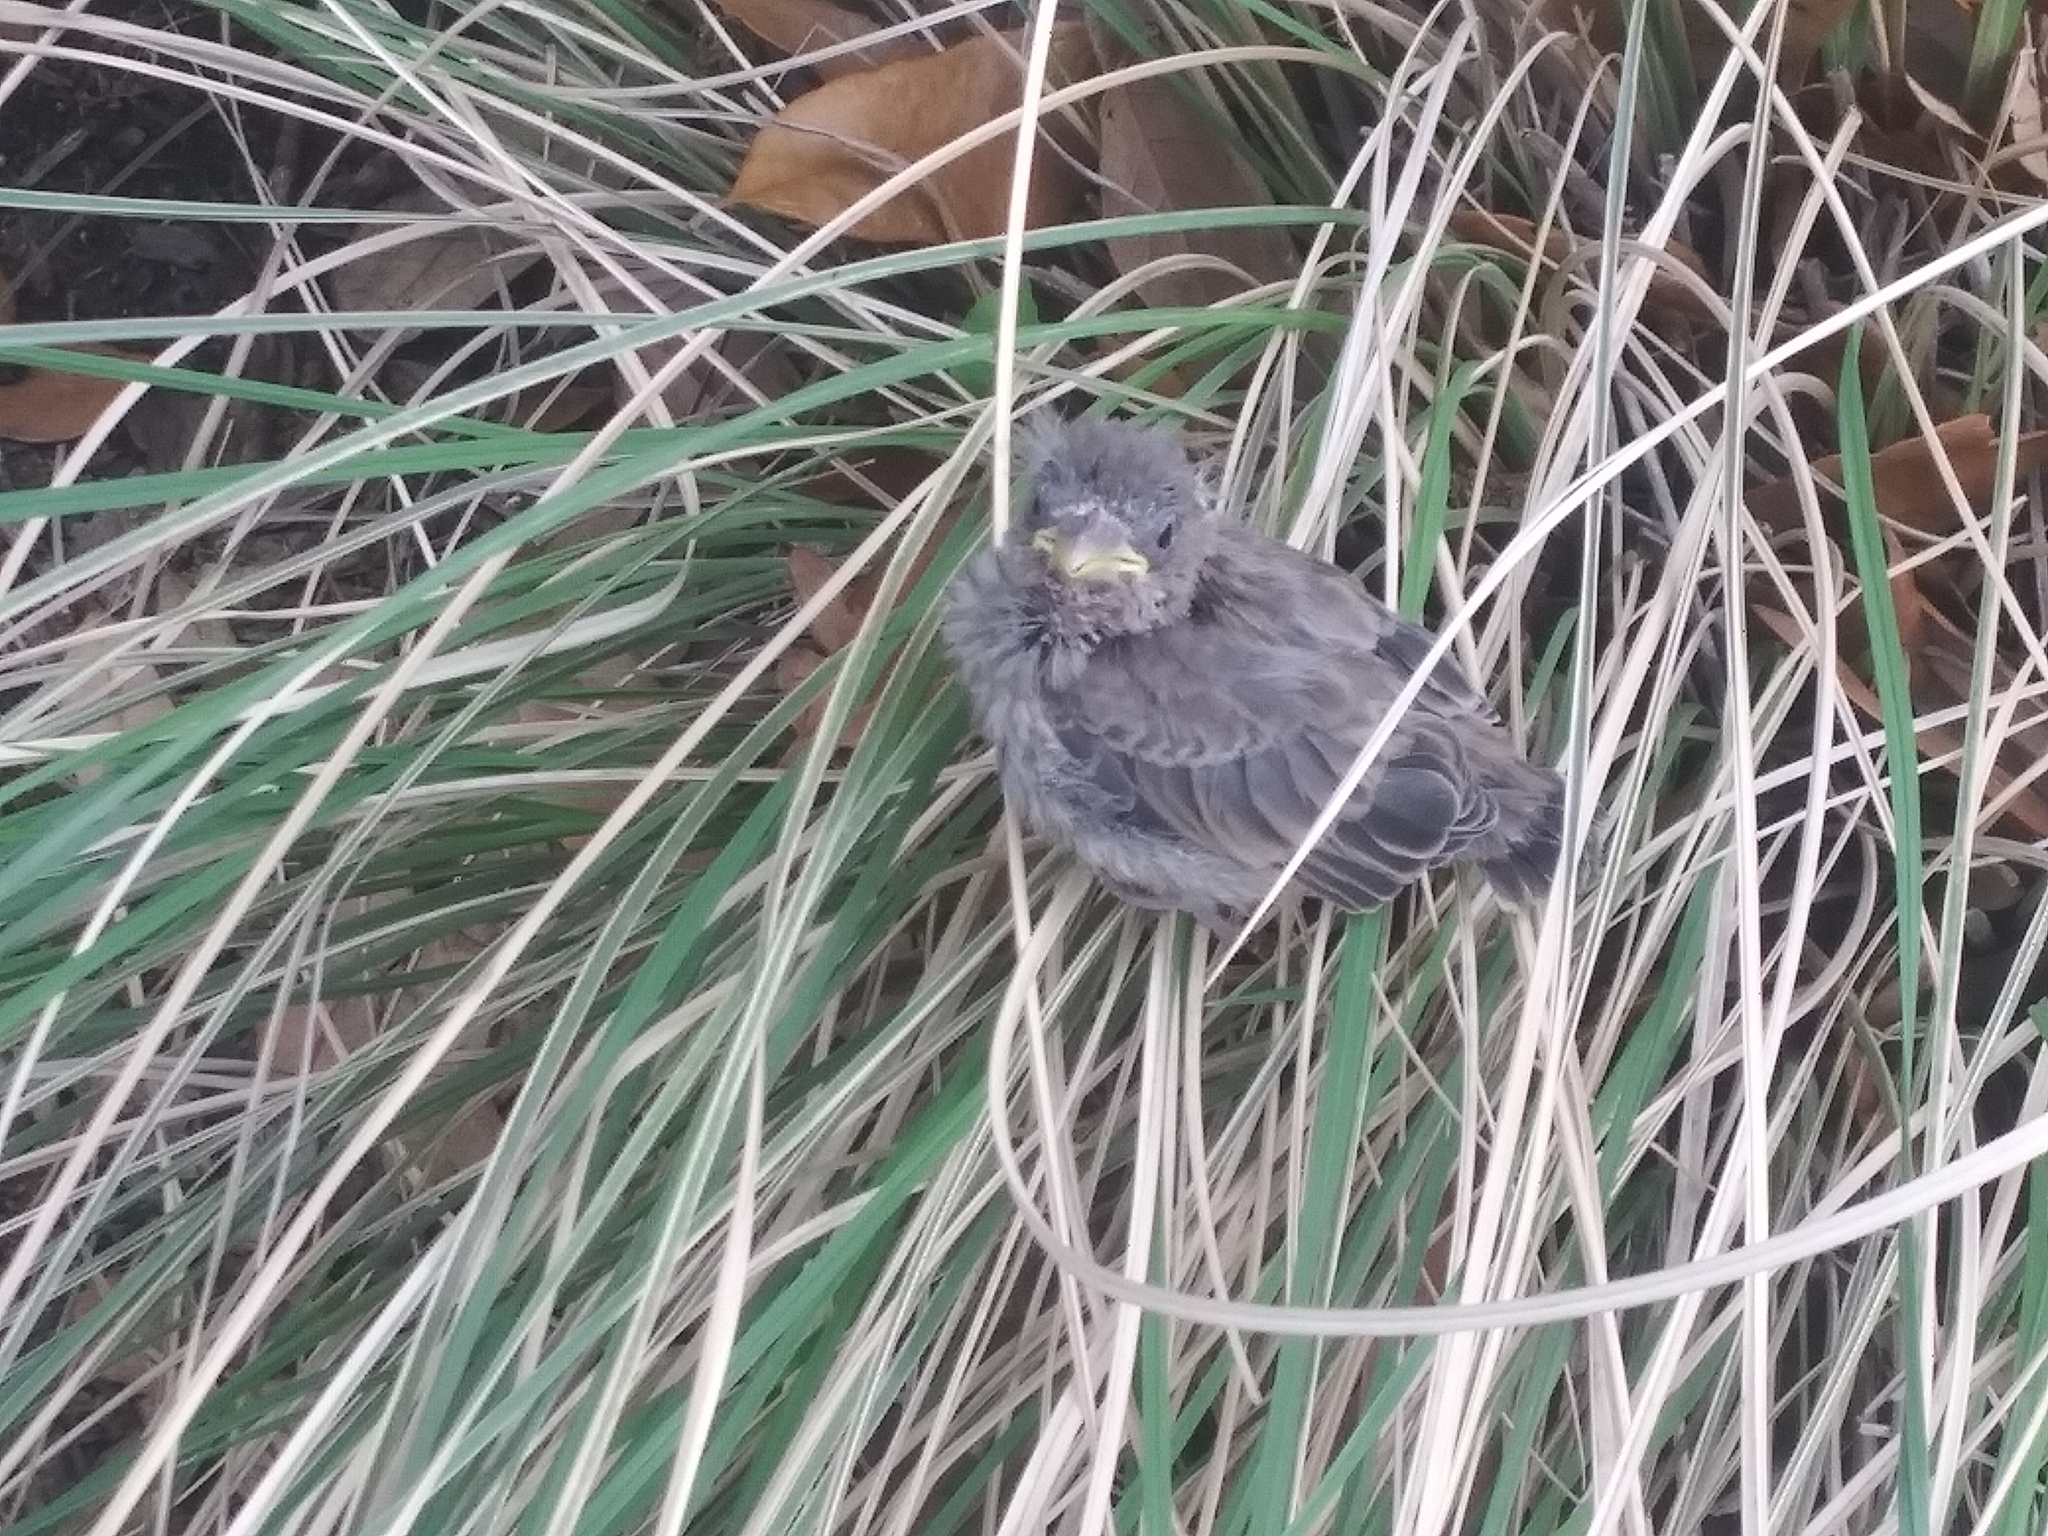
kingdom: Animalia
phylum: Chordata
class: Aves
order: Passeriformes
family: Sturnidae
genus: Sturnus
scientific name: Sturnus vulgaris
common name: Common starling
